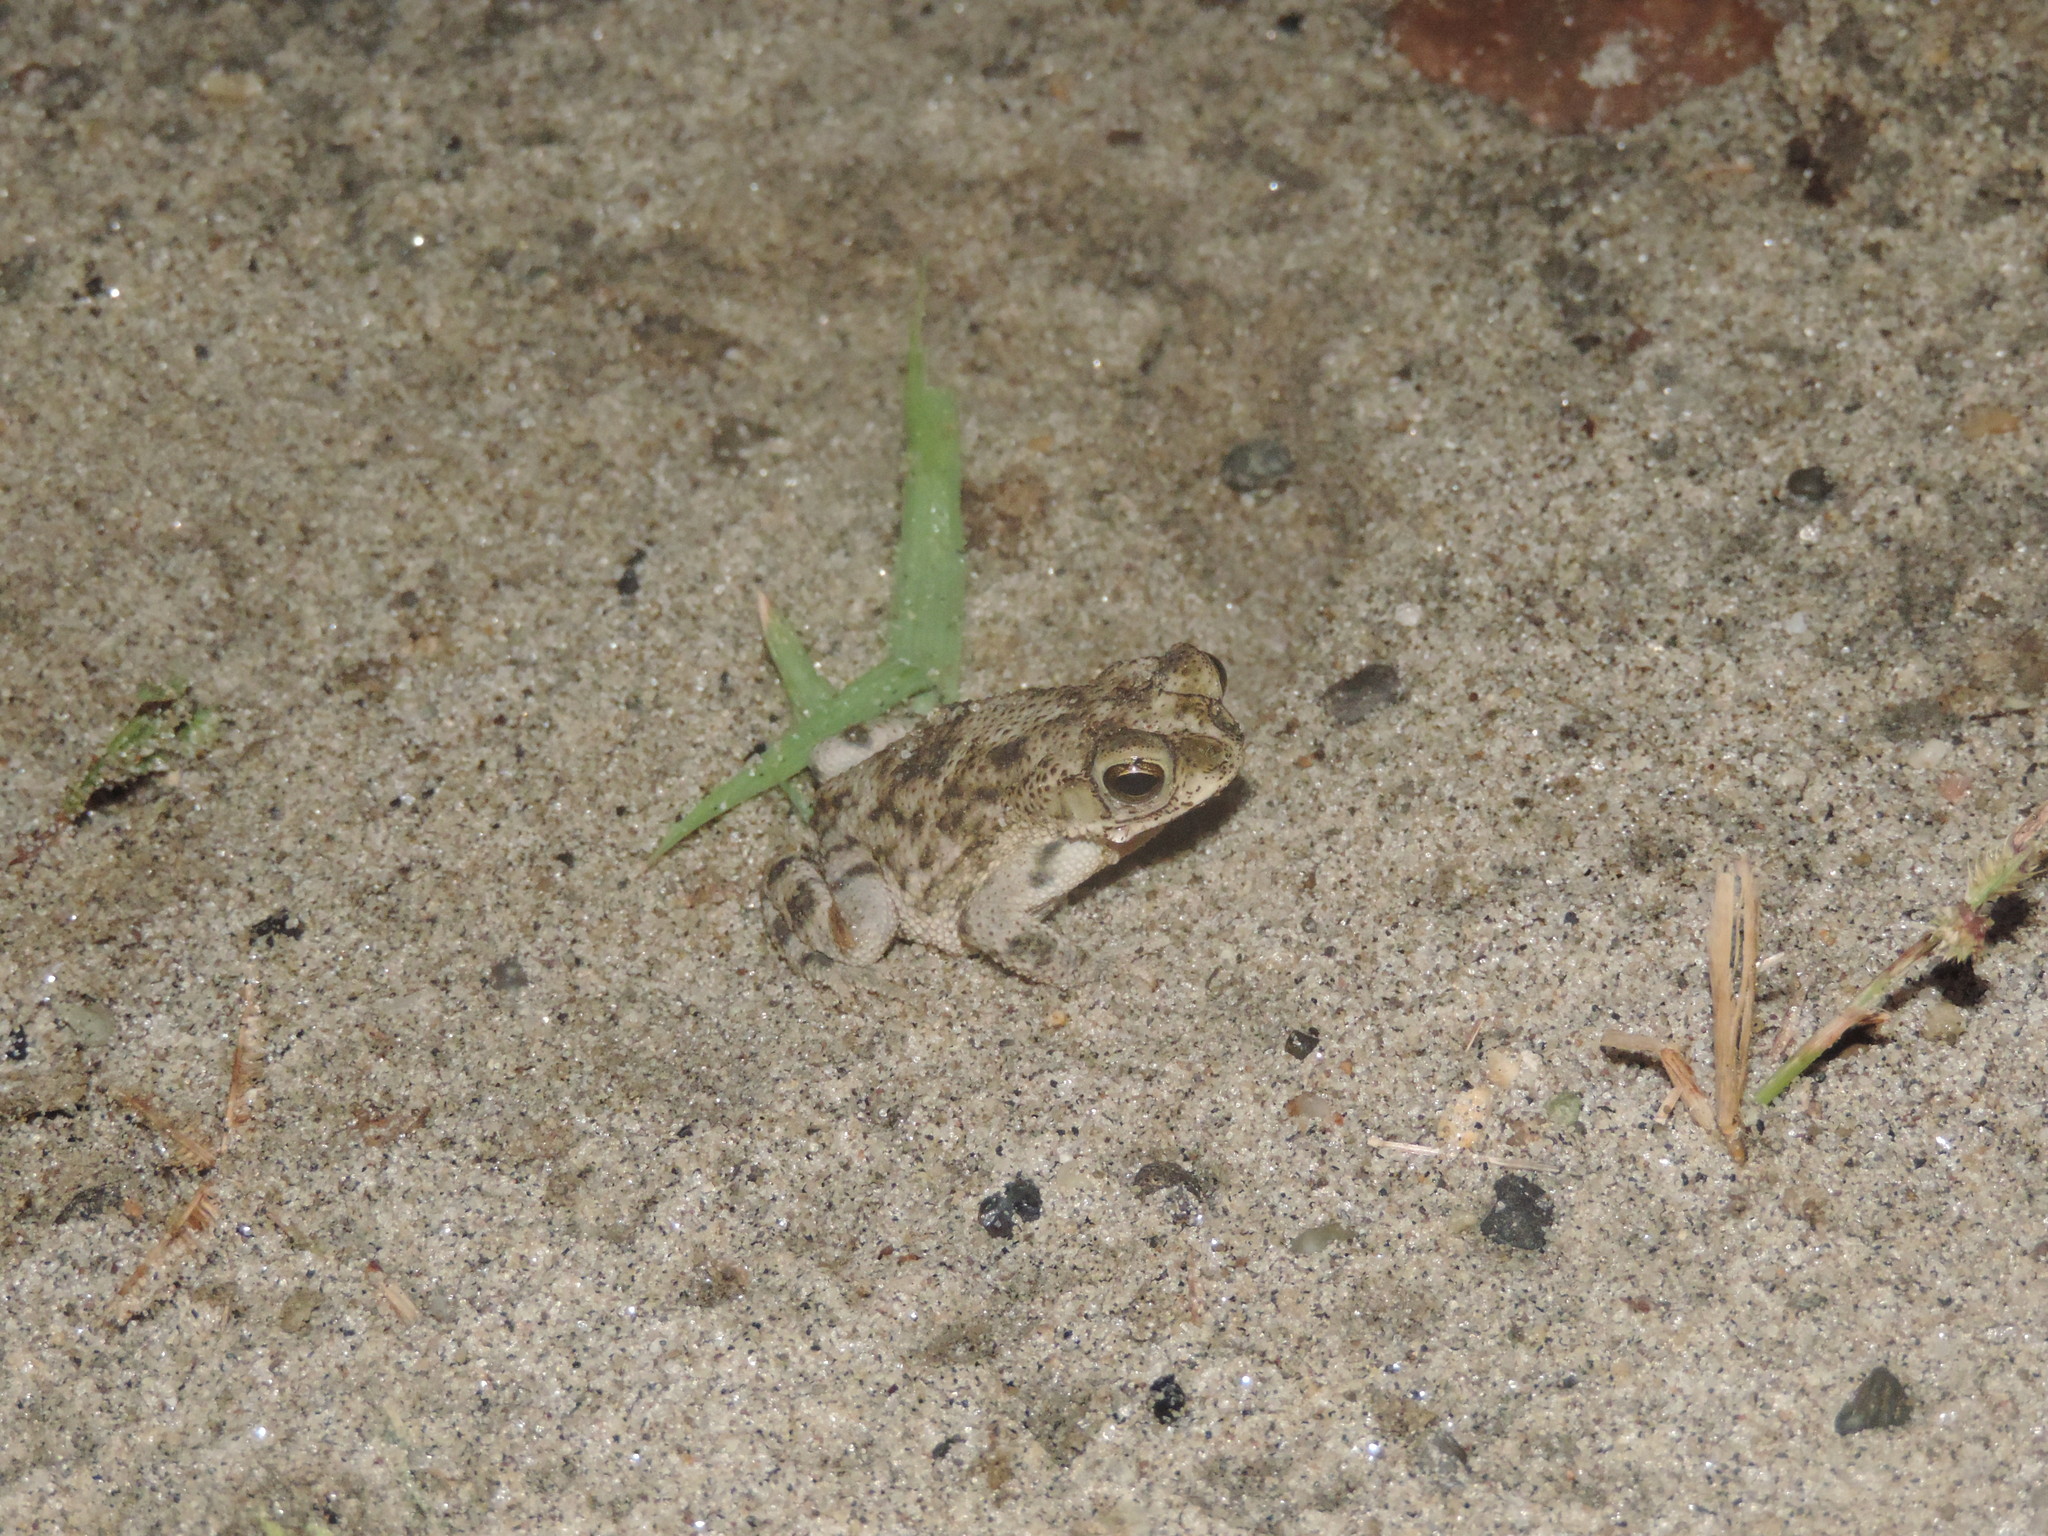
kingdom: Animalia
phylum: Chordata
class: Amphibia
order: Anura
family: Bufonidae
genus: Rhinella
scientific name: Rhinella humboldti
